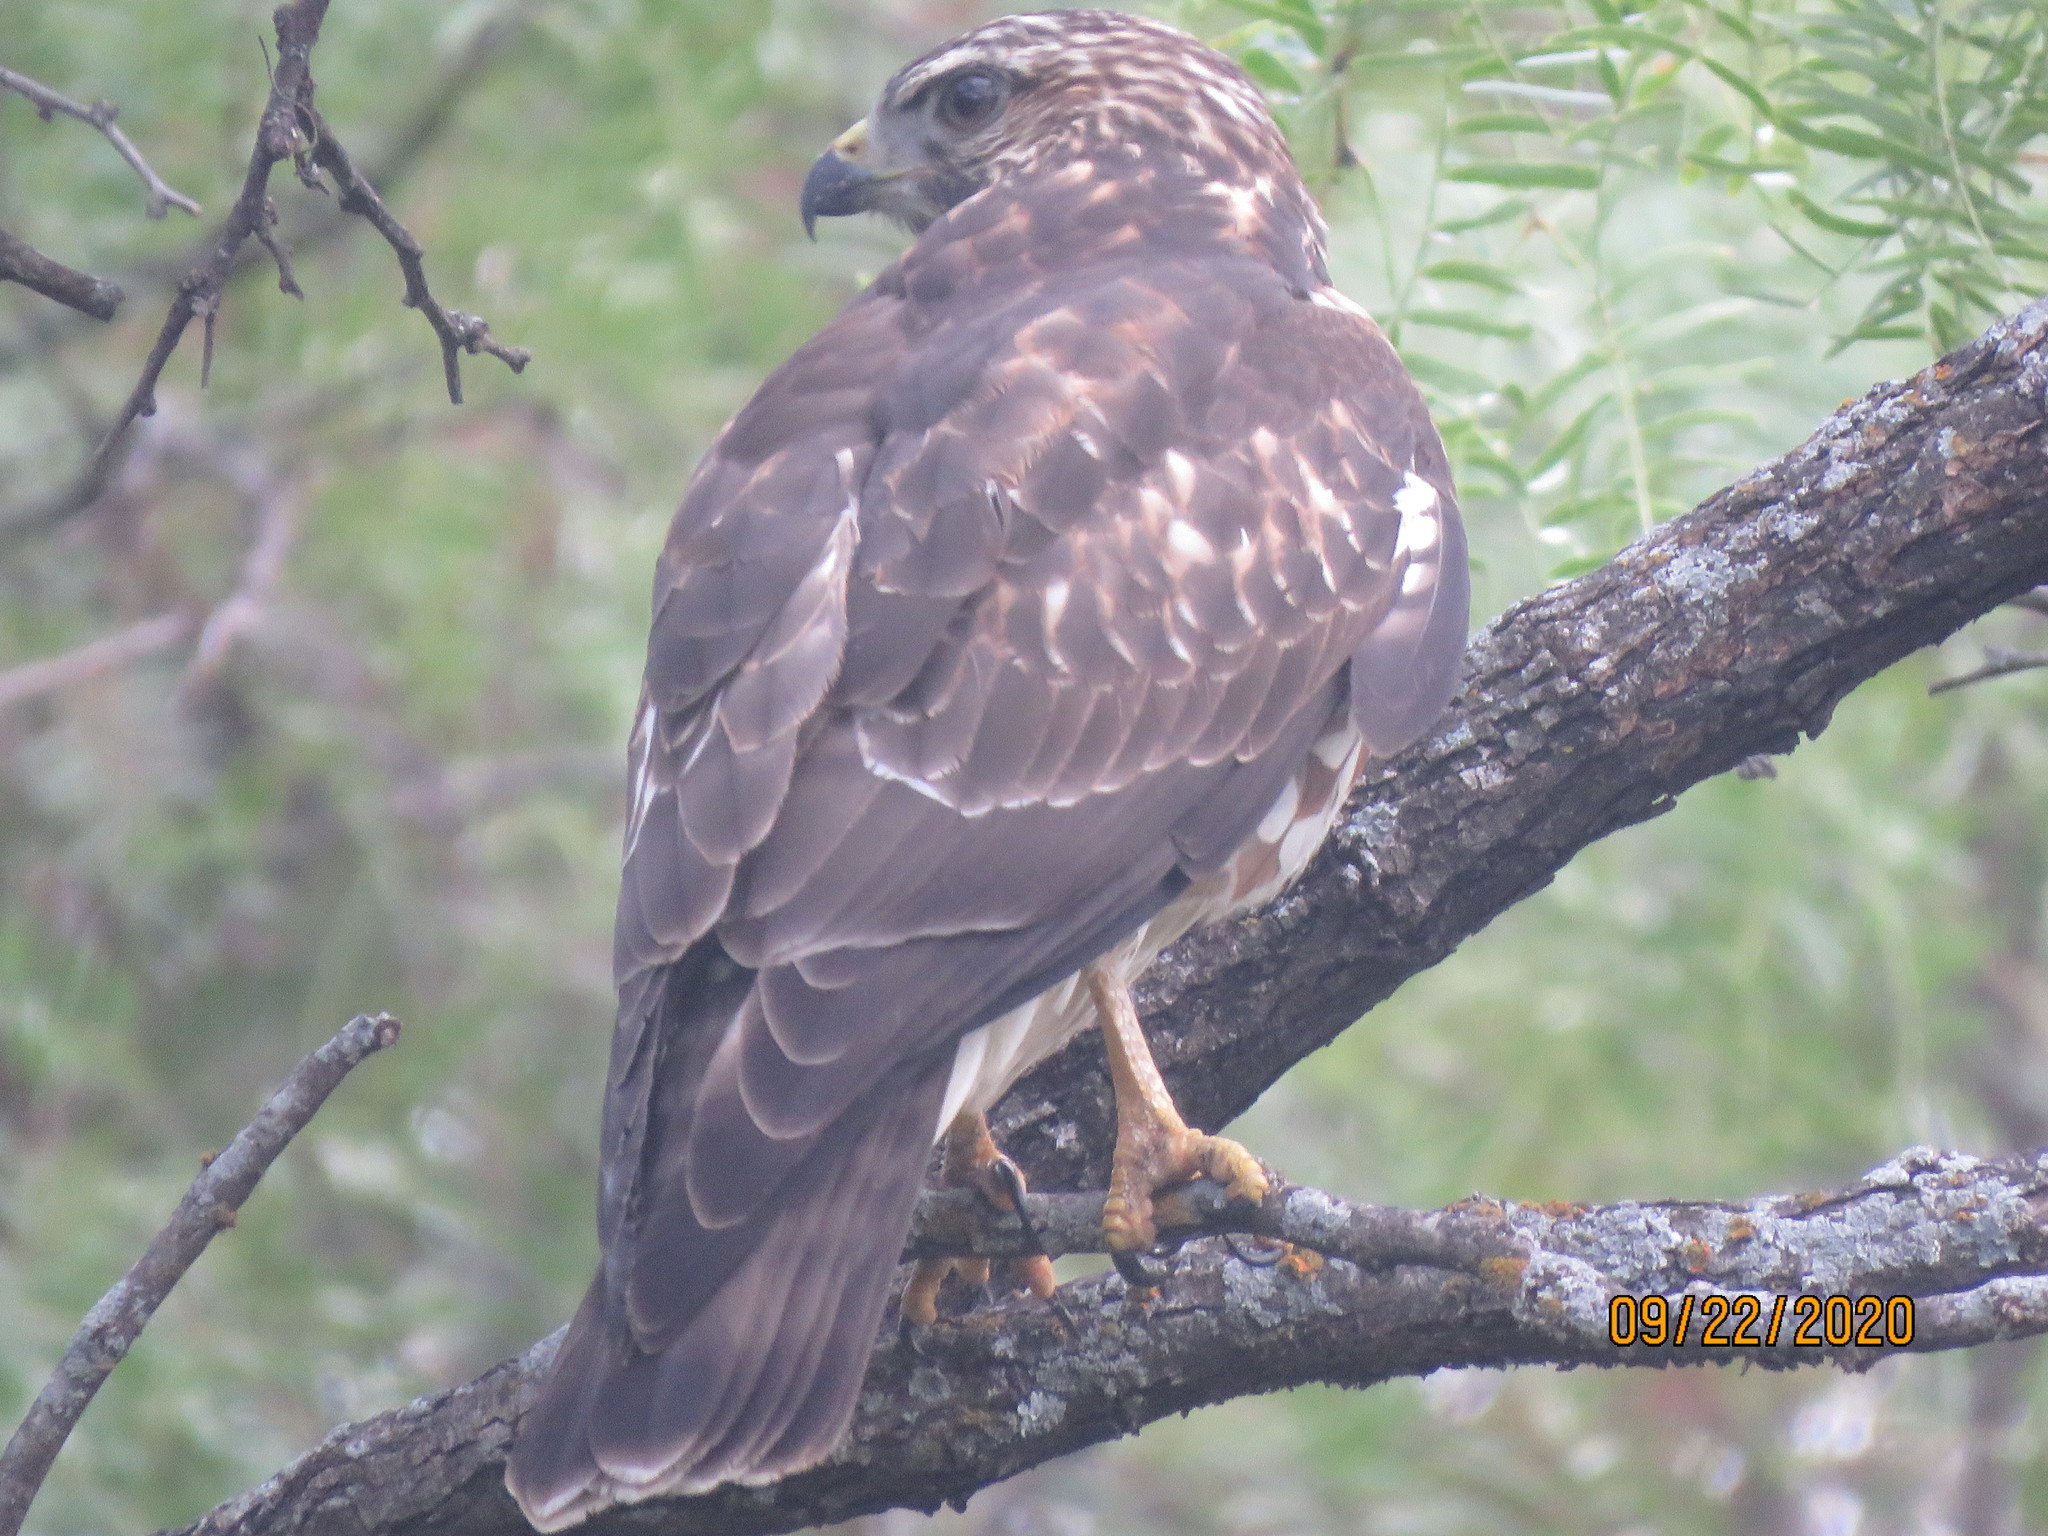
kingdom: Animalia
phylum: Chordata
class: Aves
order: Accipitriformes
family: Accipitridae
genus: Buteo
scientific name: Buteo platypterus
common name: Broad-winged hawk
